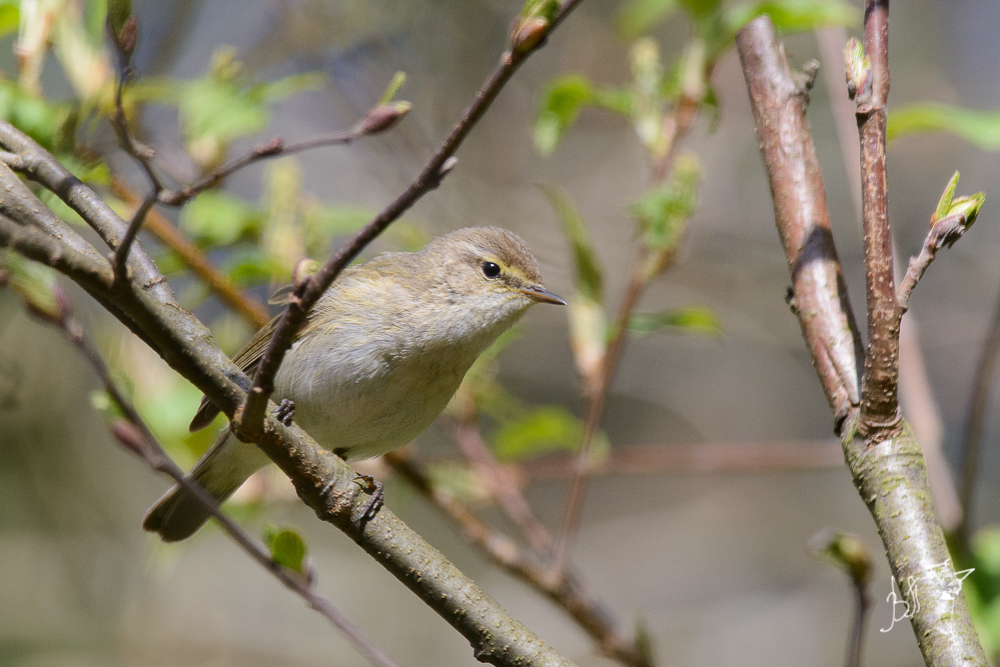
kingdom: Animalia
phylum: Chordata
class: Aves
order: Passeriformes
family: Phylloscopidae
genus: Phylloscopus
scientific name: Phylloscopus collybita
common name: Common chiffchaff
